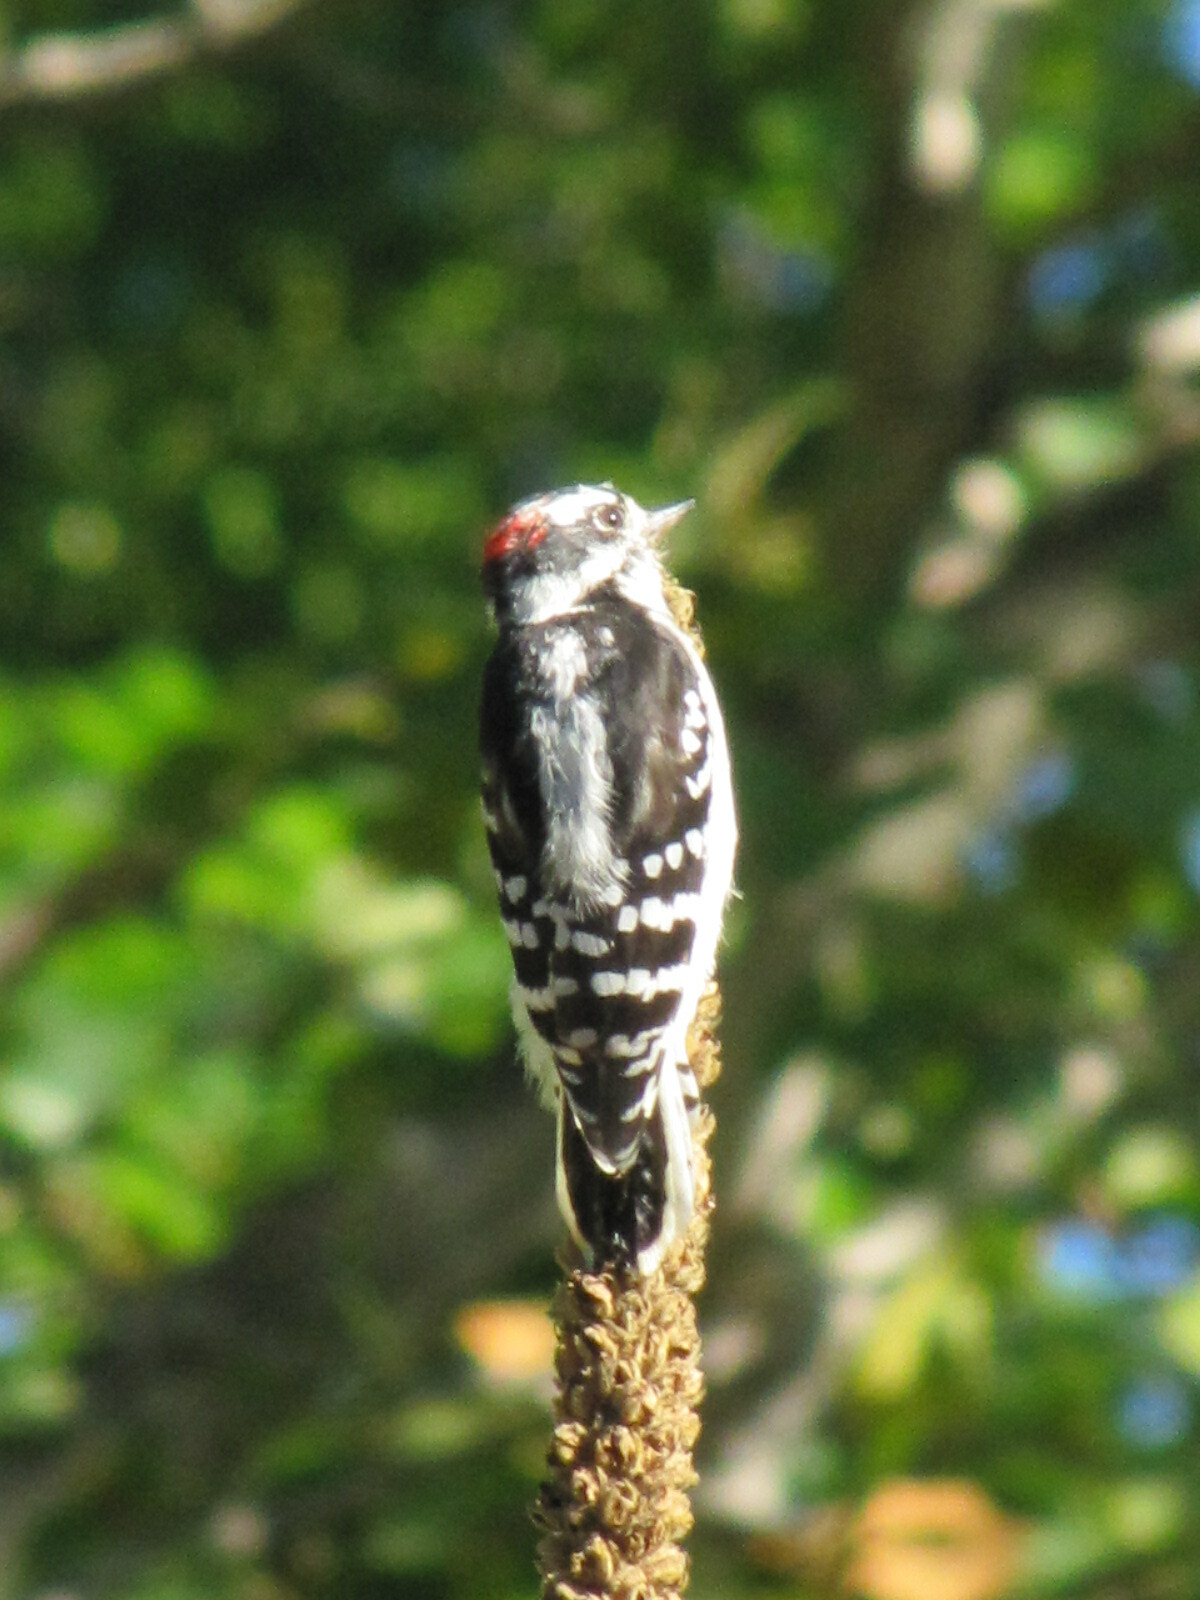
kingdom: Animalia
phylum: Chordata
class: Aves
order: Piciformes
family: Picidae
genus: Dryobates
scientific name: Dryobates pubescens
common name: Downy woodpecker
